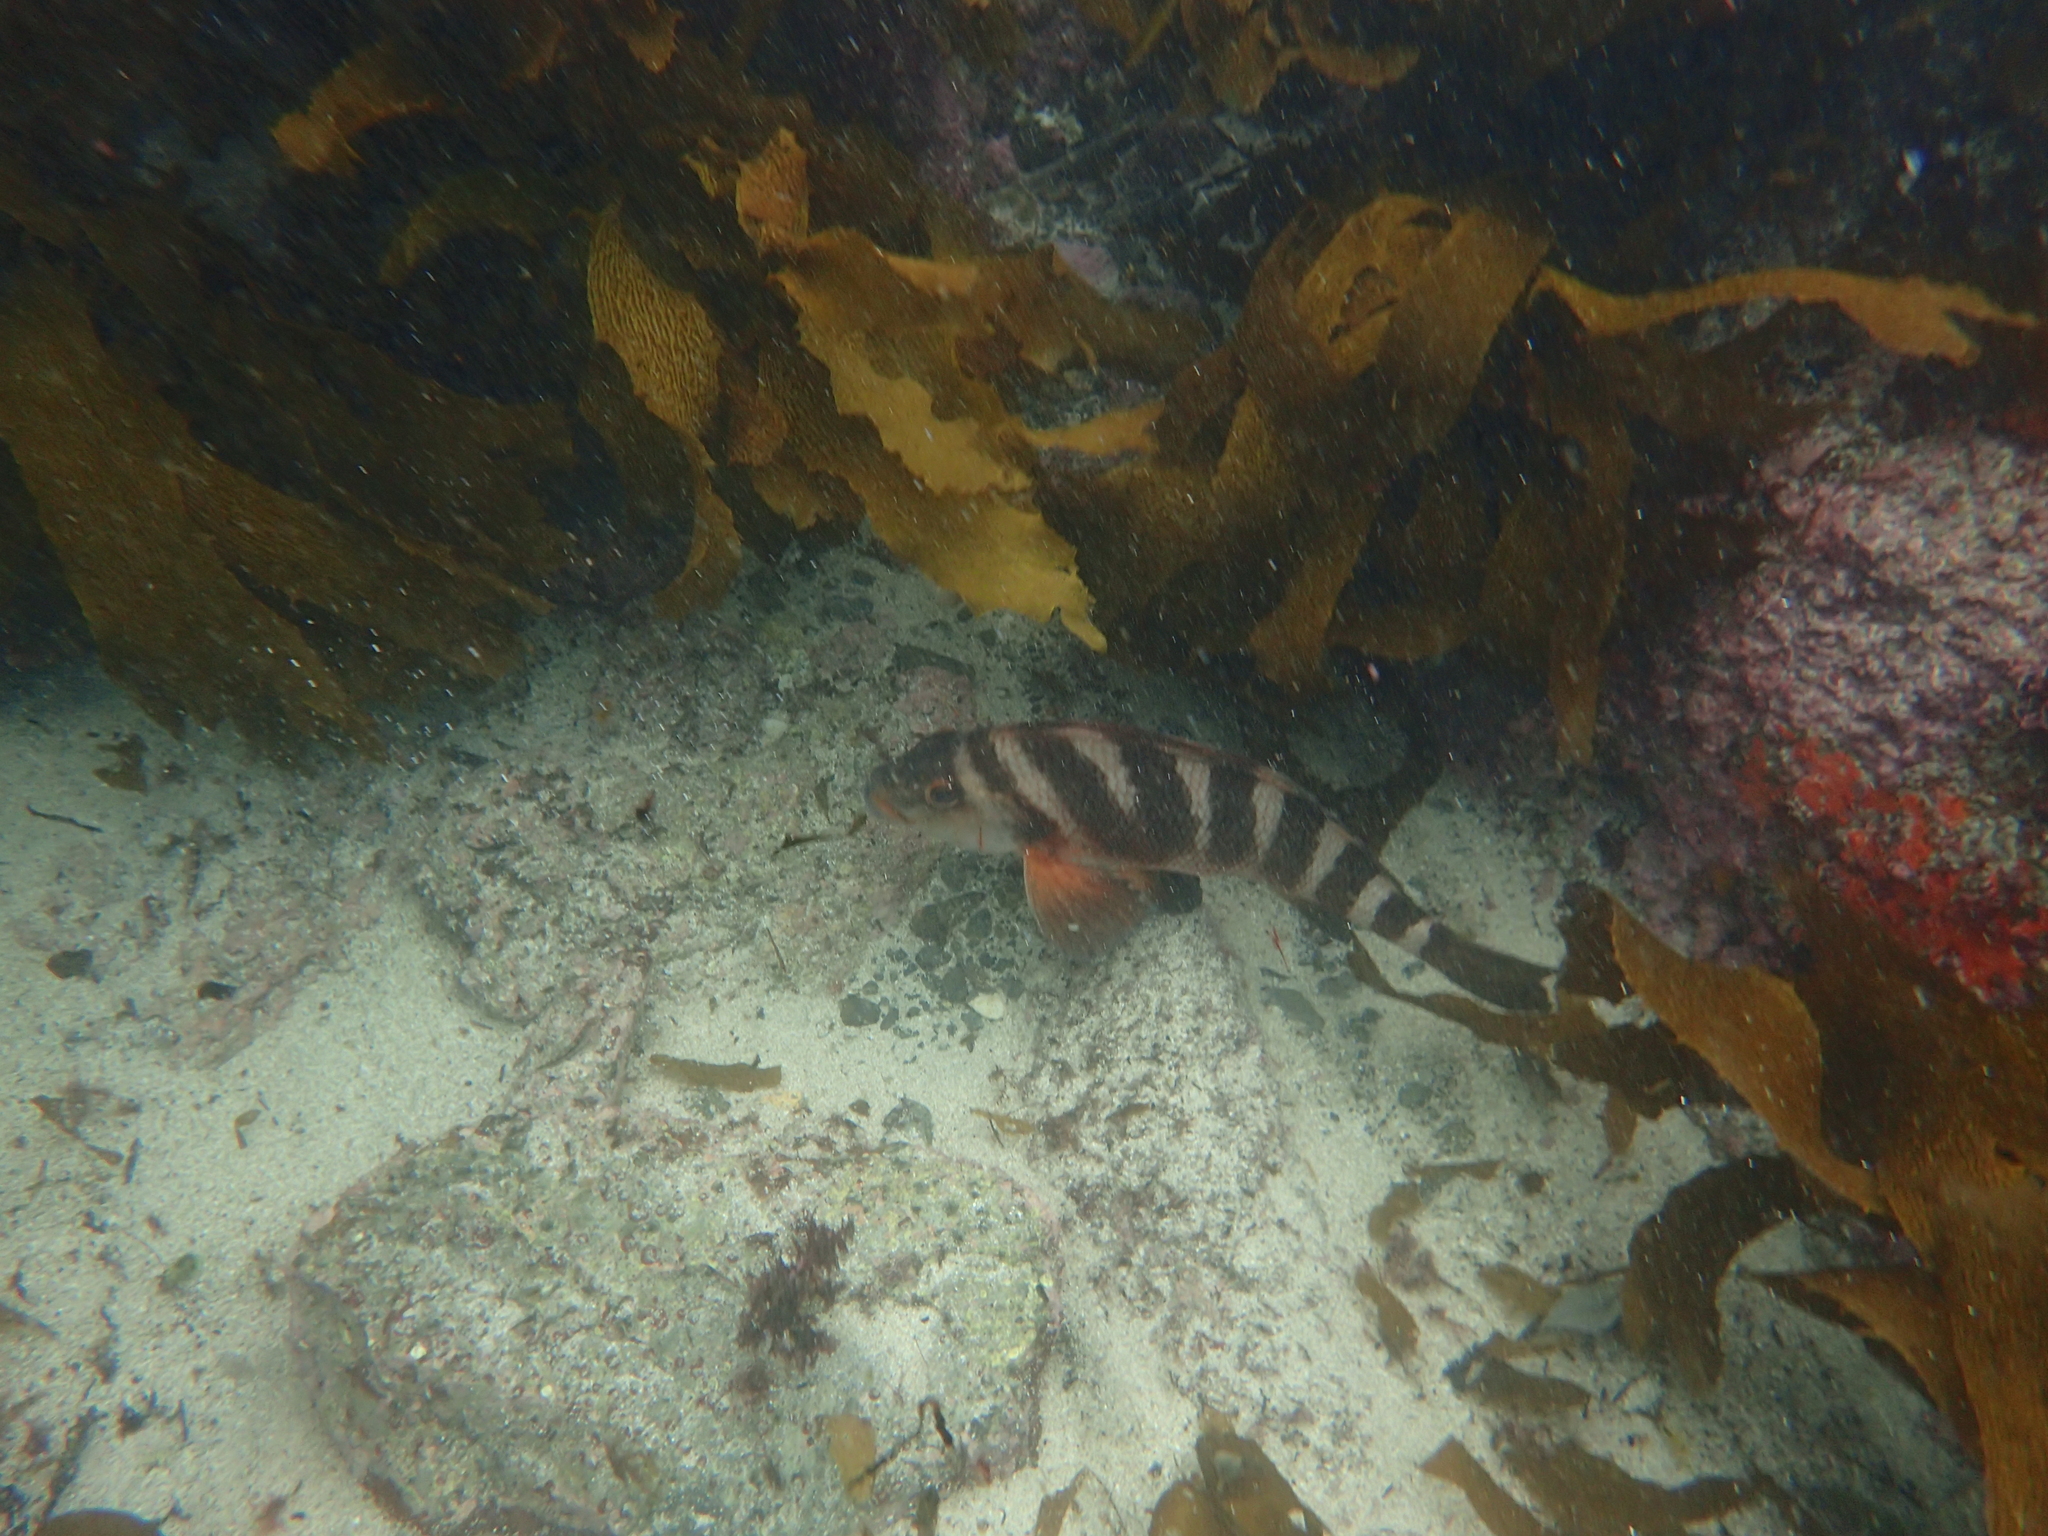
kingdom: Animalia
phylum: Chordata
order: Perciformes
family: Cheilodactylidae
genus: Cheilodactylus
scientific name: Cheilodactylus spectabilis
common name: Red moki
